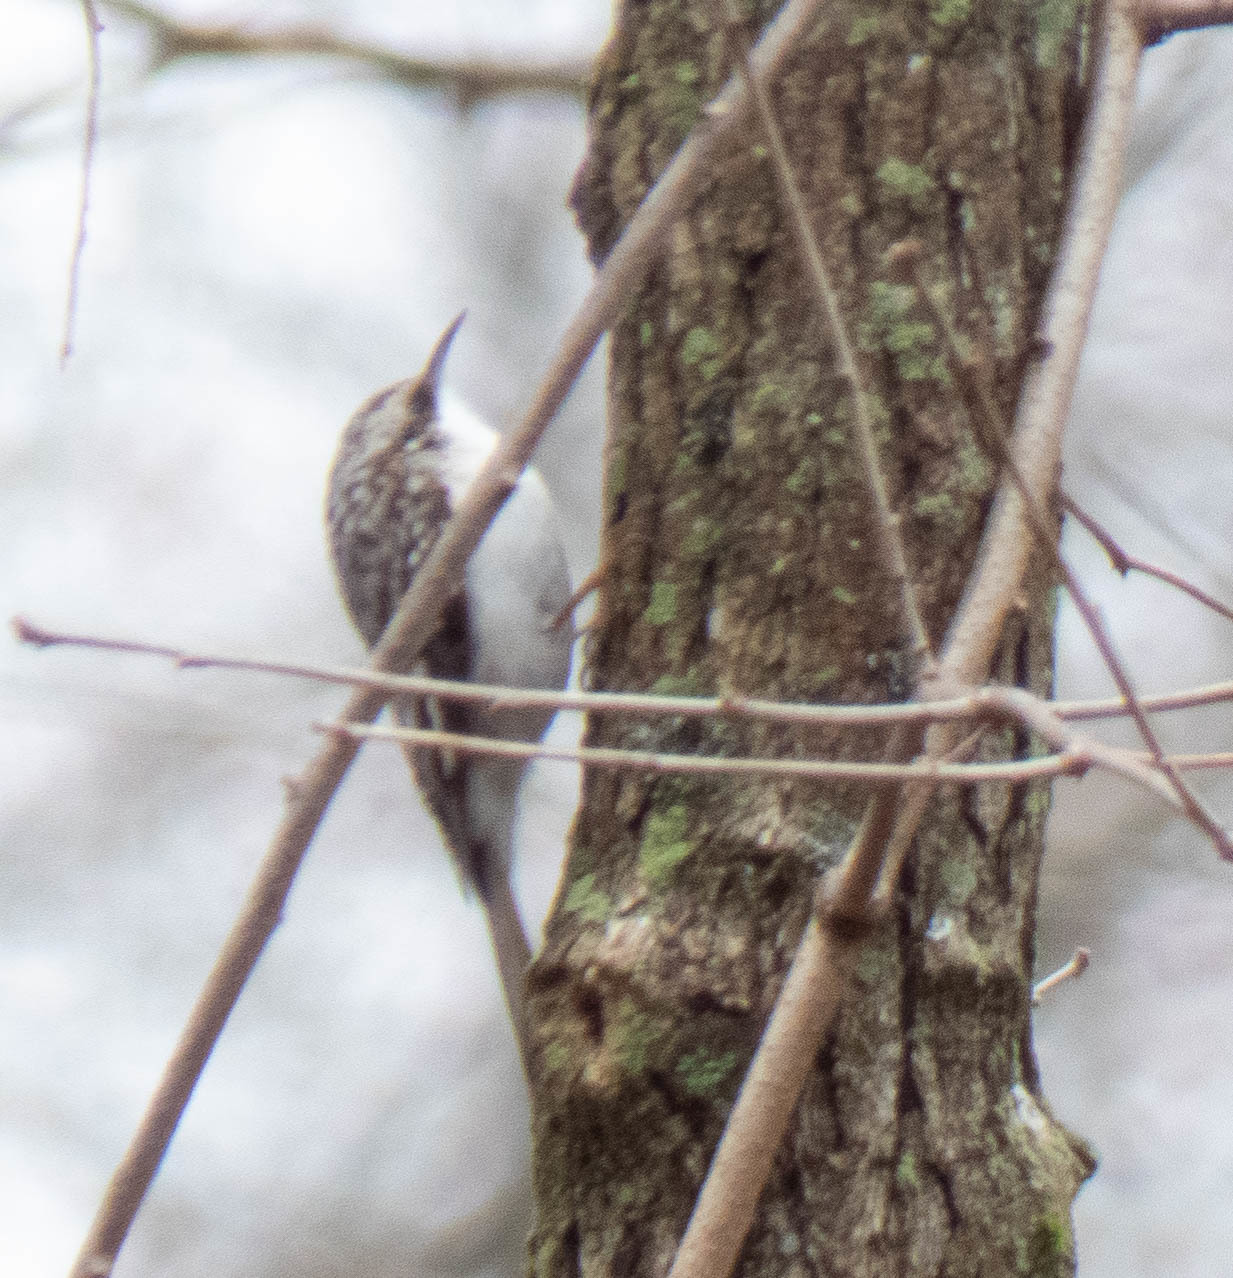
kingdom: Animalia
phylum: Chordata
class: Aves
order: Passeriformes
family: Certhiidae
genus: Certhia
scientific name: Certhia americana
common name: Brown creeper
